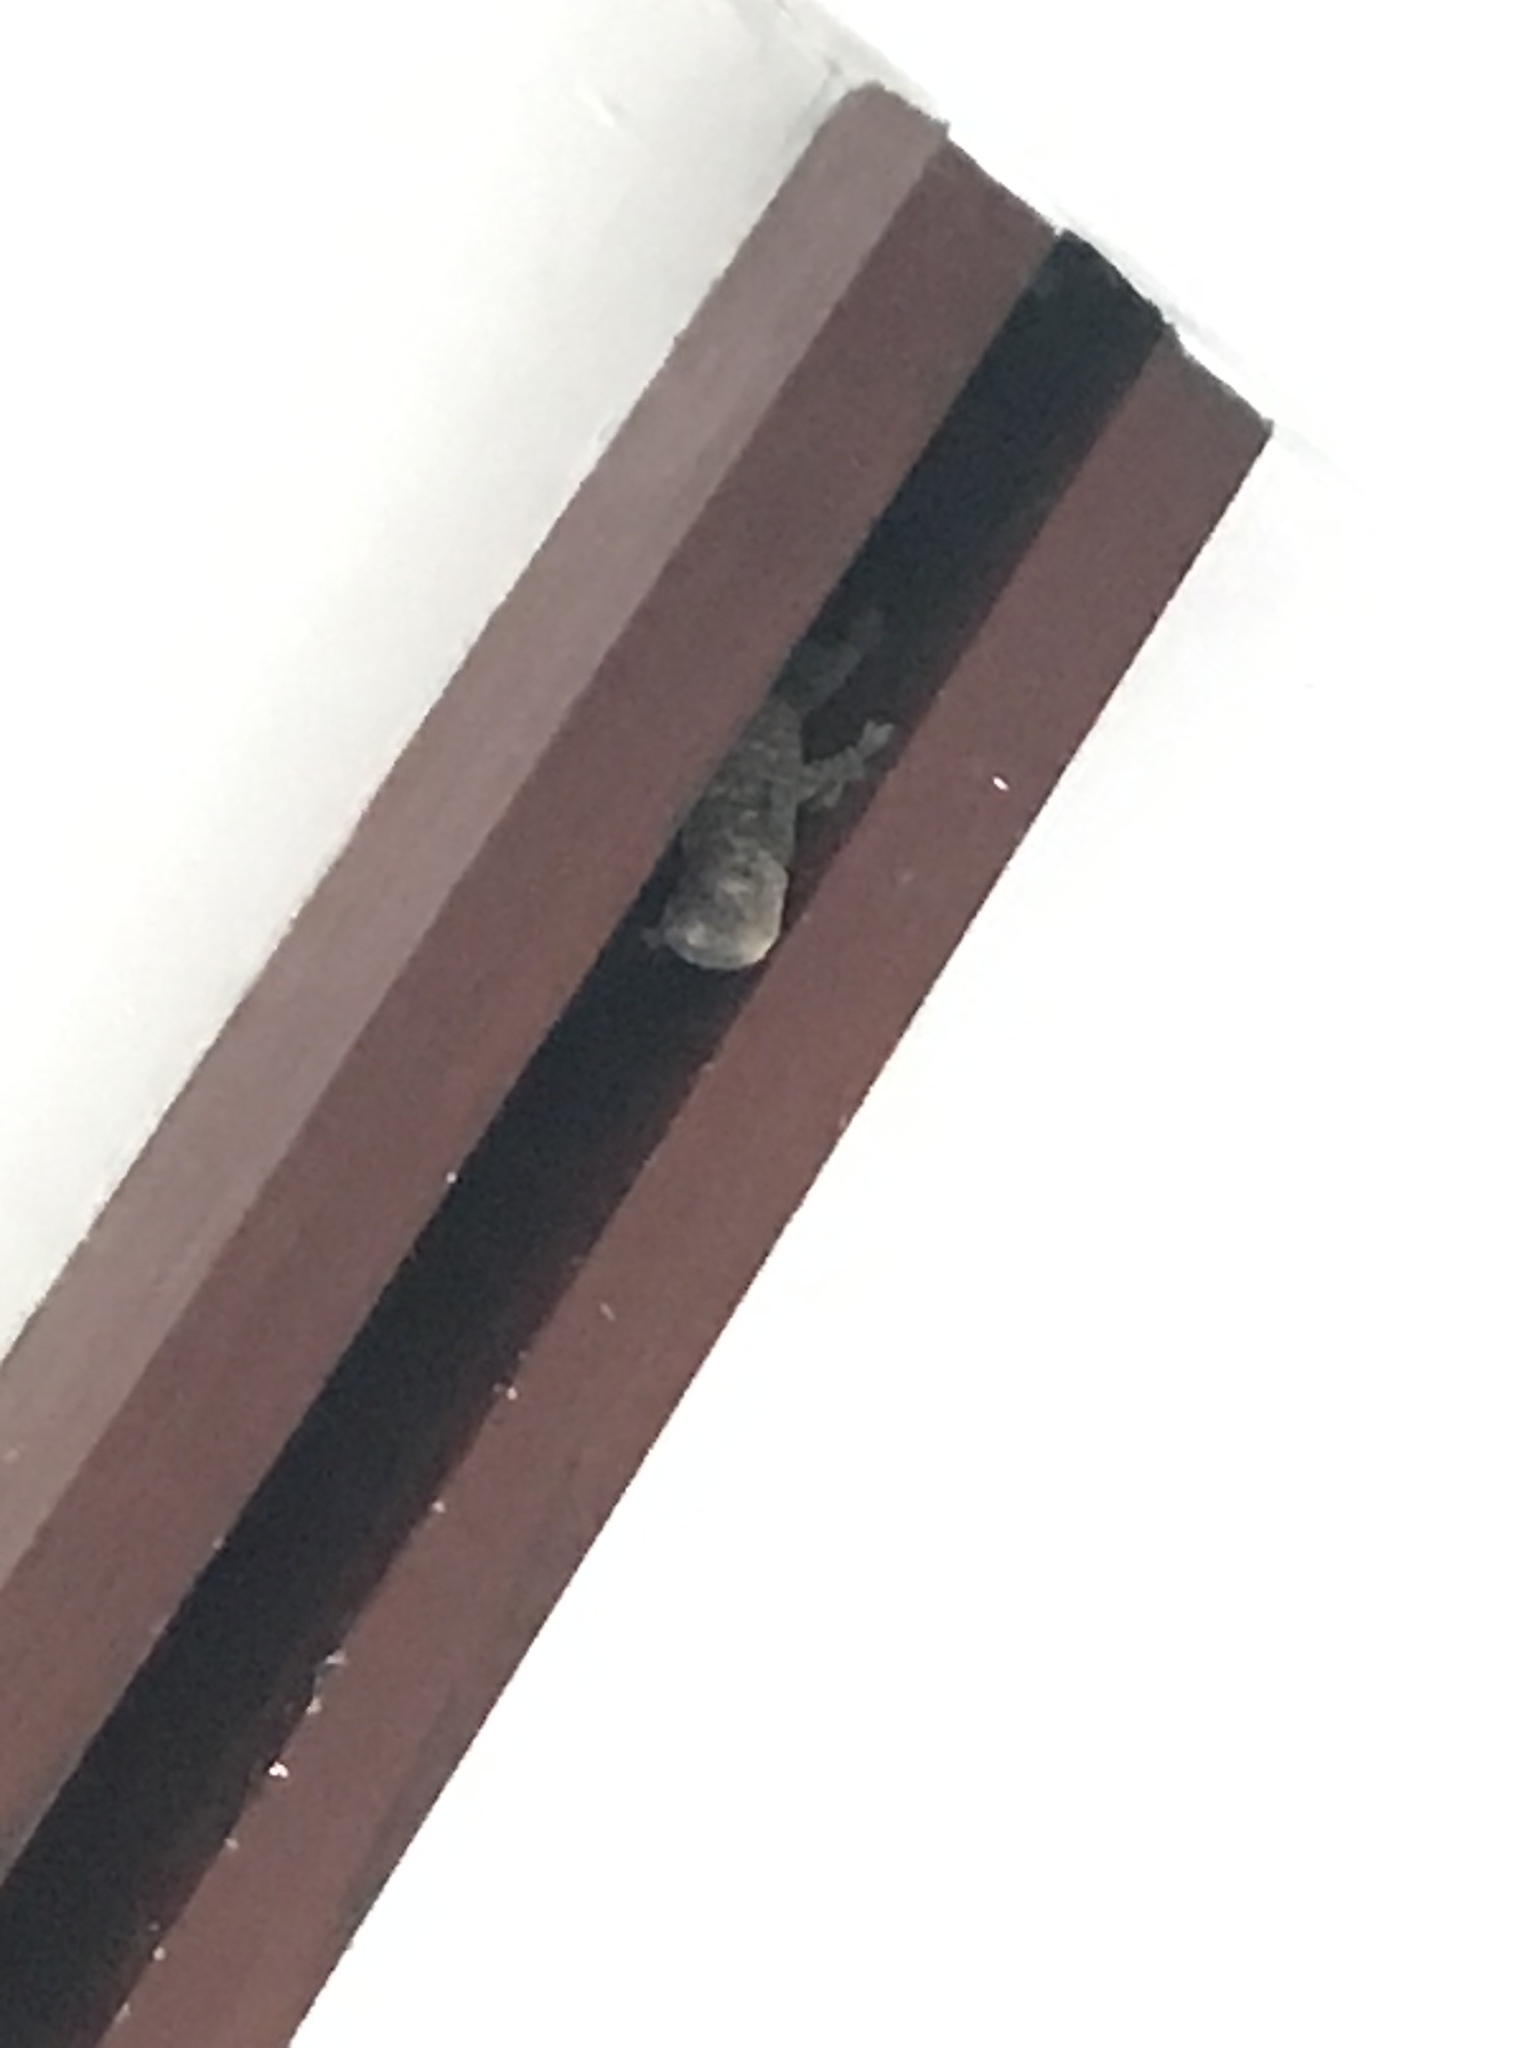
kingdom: Animalia
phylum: Chordata
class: Squamata
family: Gekkonidae
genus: Gekko
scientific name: Gekko gecko
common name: Tokay gecko
